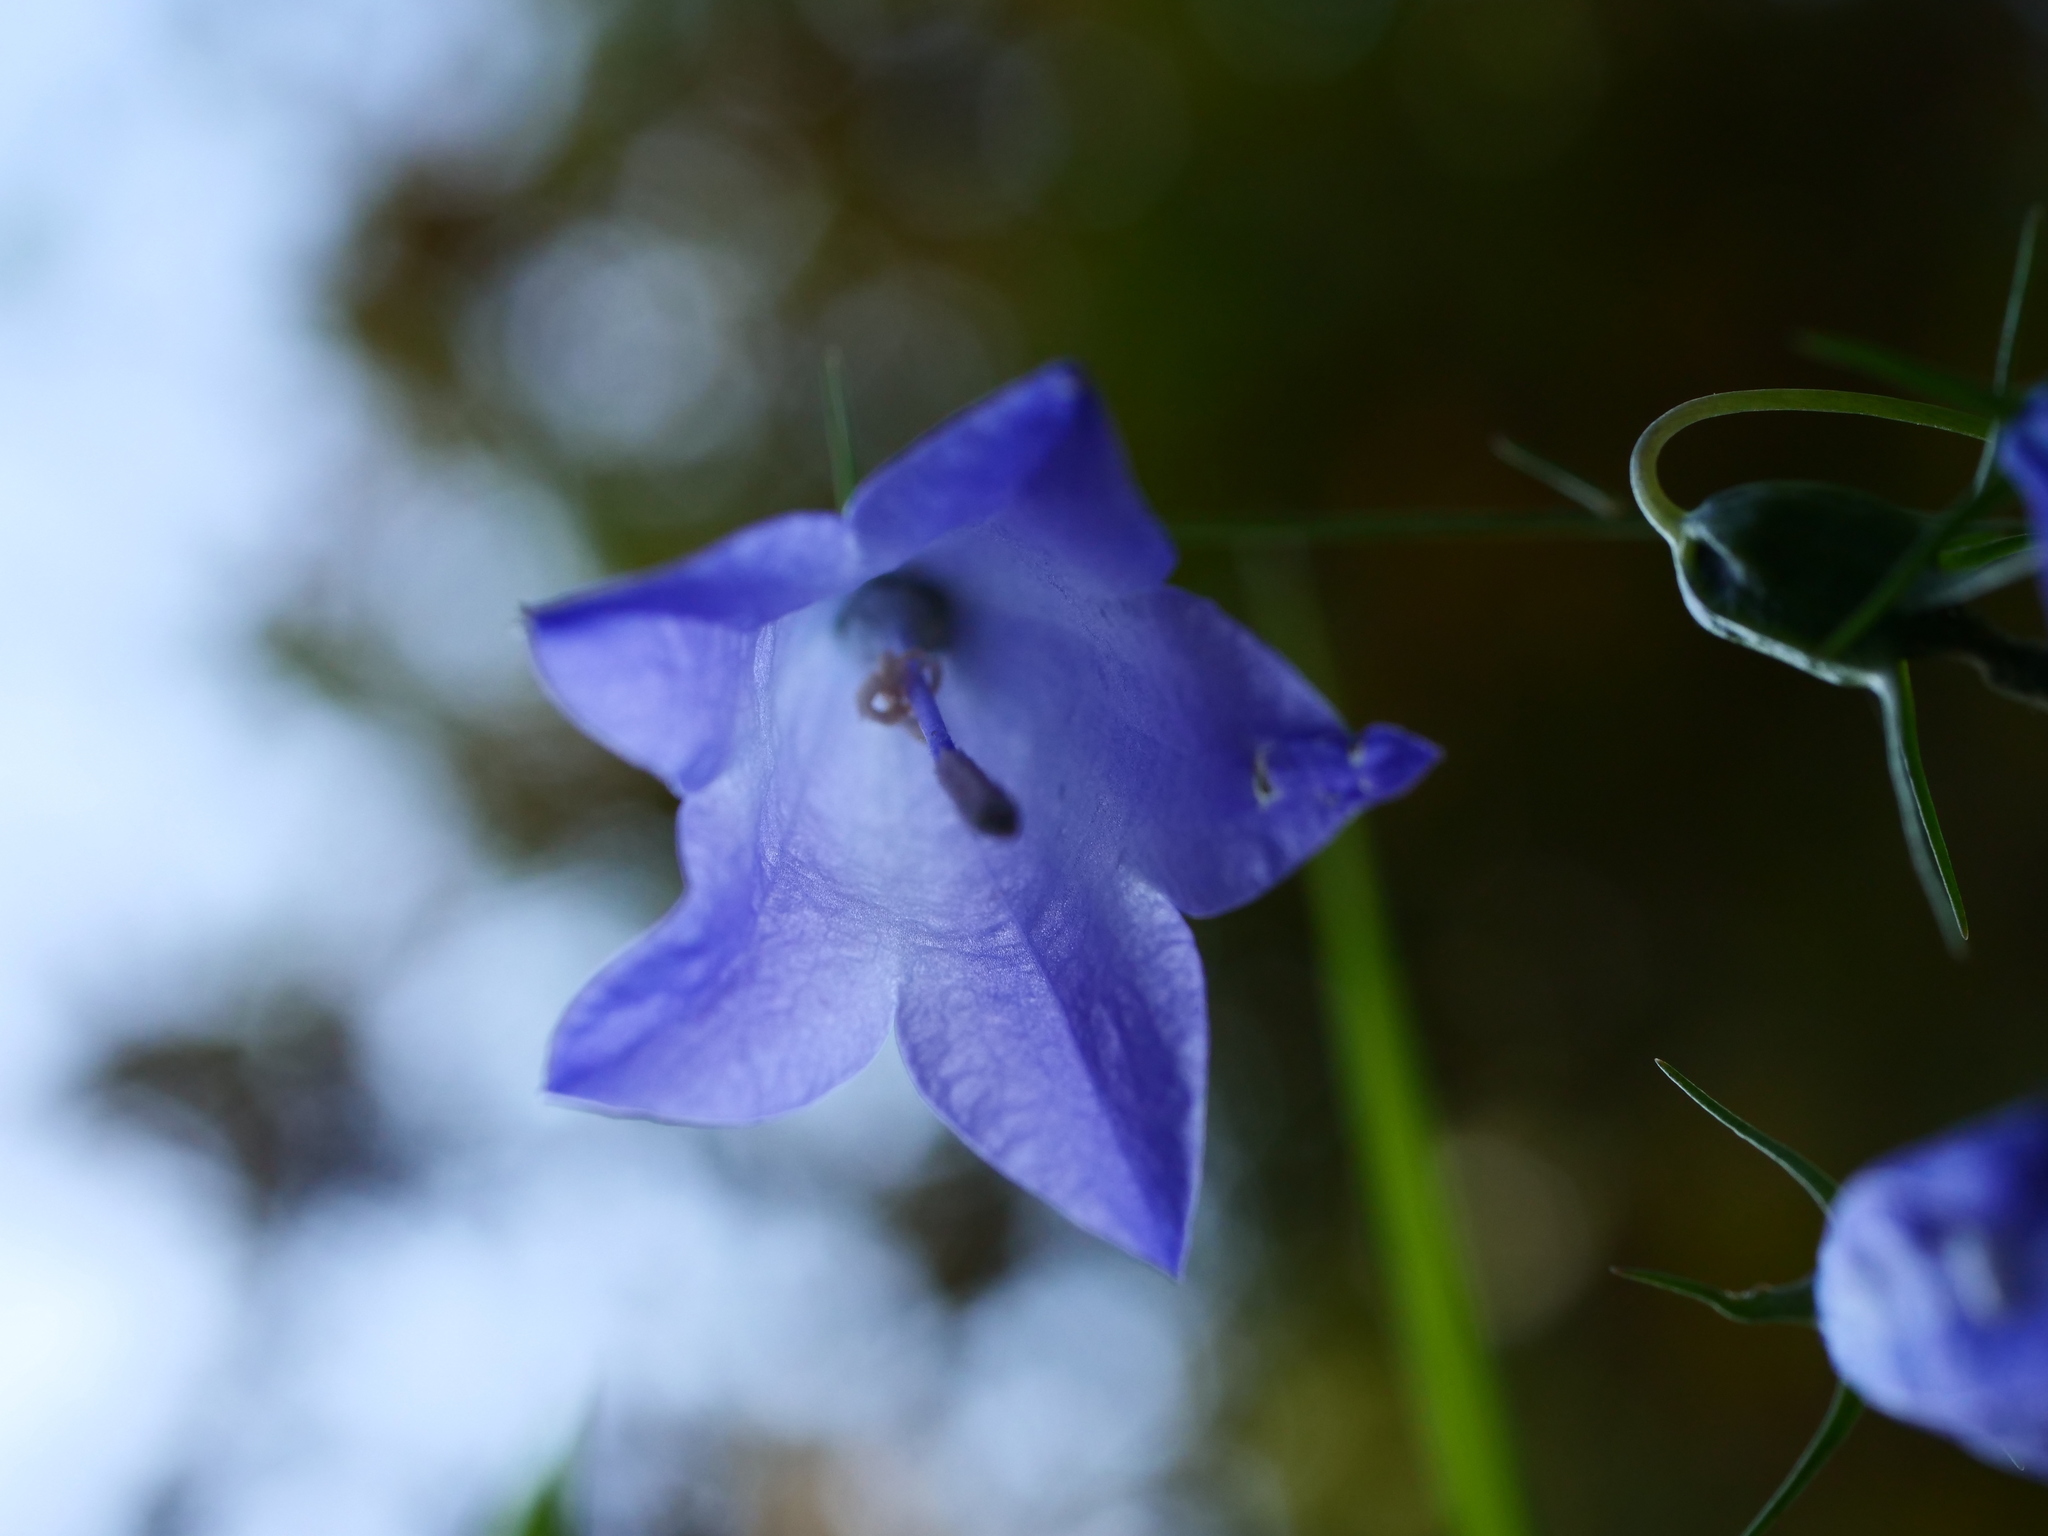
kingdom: Plantae
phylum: Tracheophyta
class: Magnoliopsida
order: Asterales
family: Campanulaceae
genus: Campanula
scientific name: Campanula rotundifolia
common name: Harebell
